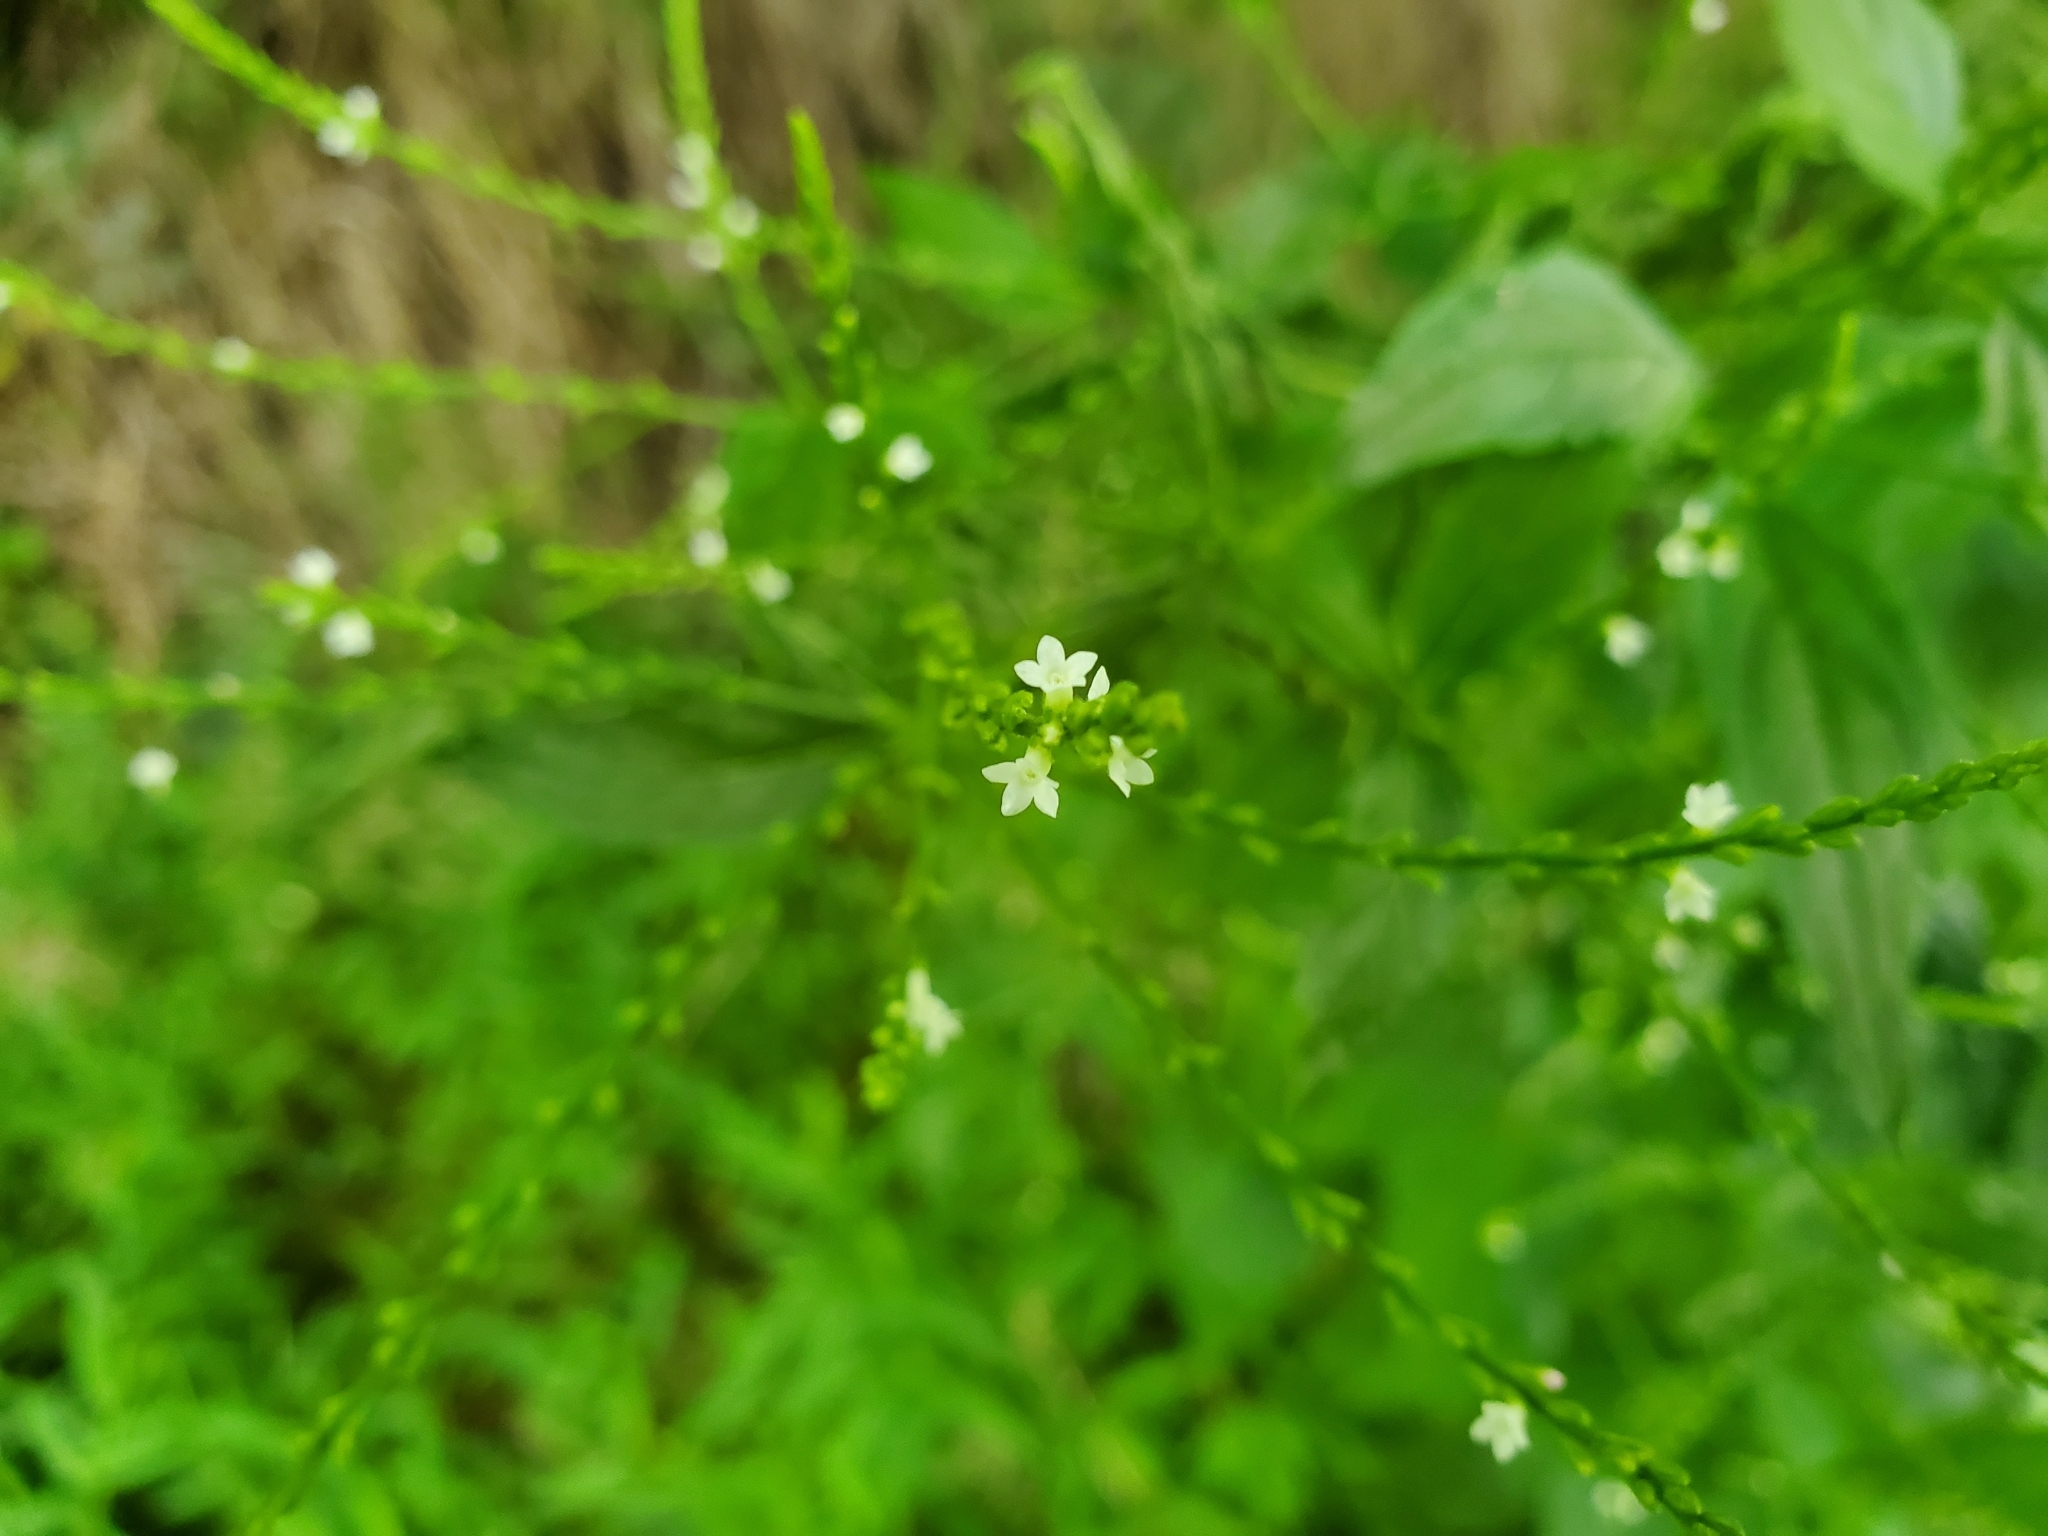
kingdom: Plantae
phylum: Tracheophyta
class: Magnoliopsida
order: Lamiales
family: Verbenaceae
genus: Verbena
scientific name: Verbena urticifolia
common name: Nettle-leaved vervain
